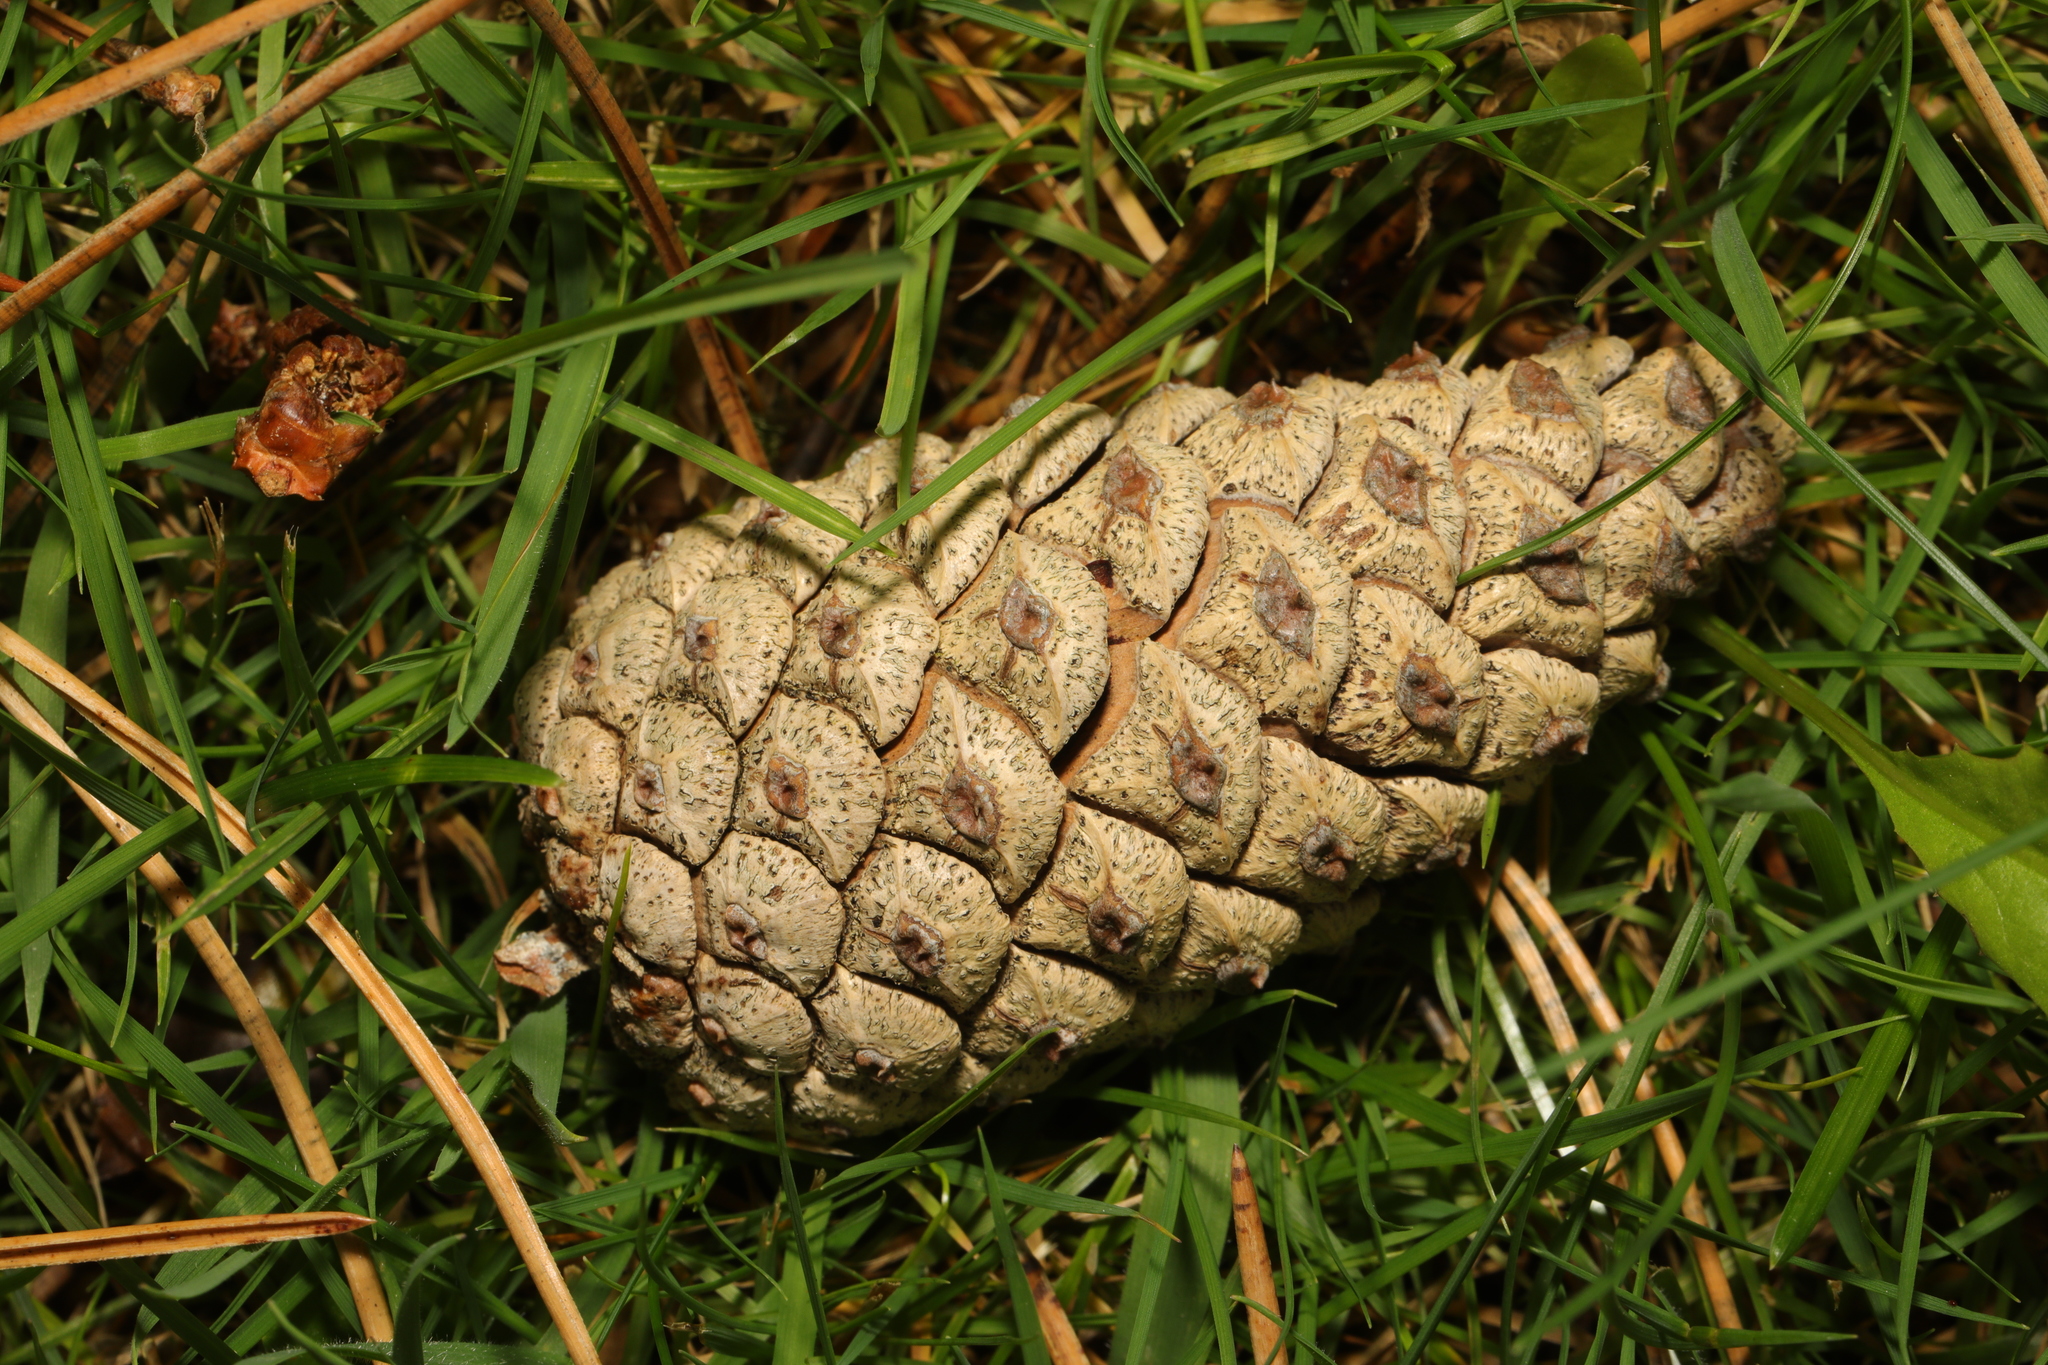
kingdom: Plantae
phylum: Tracheophyta
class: Pinopsida
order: Pinales
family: Pinaceae
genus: Pinus
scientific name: Pinus nigra
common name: Austrian pine
